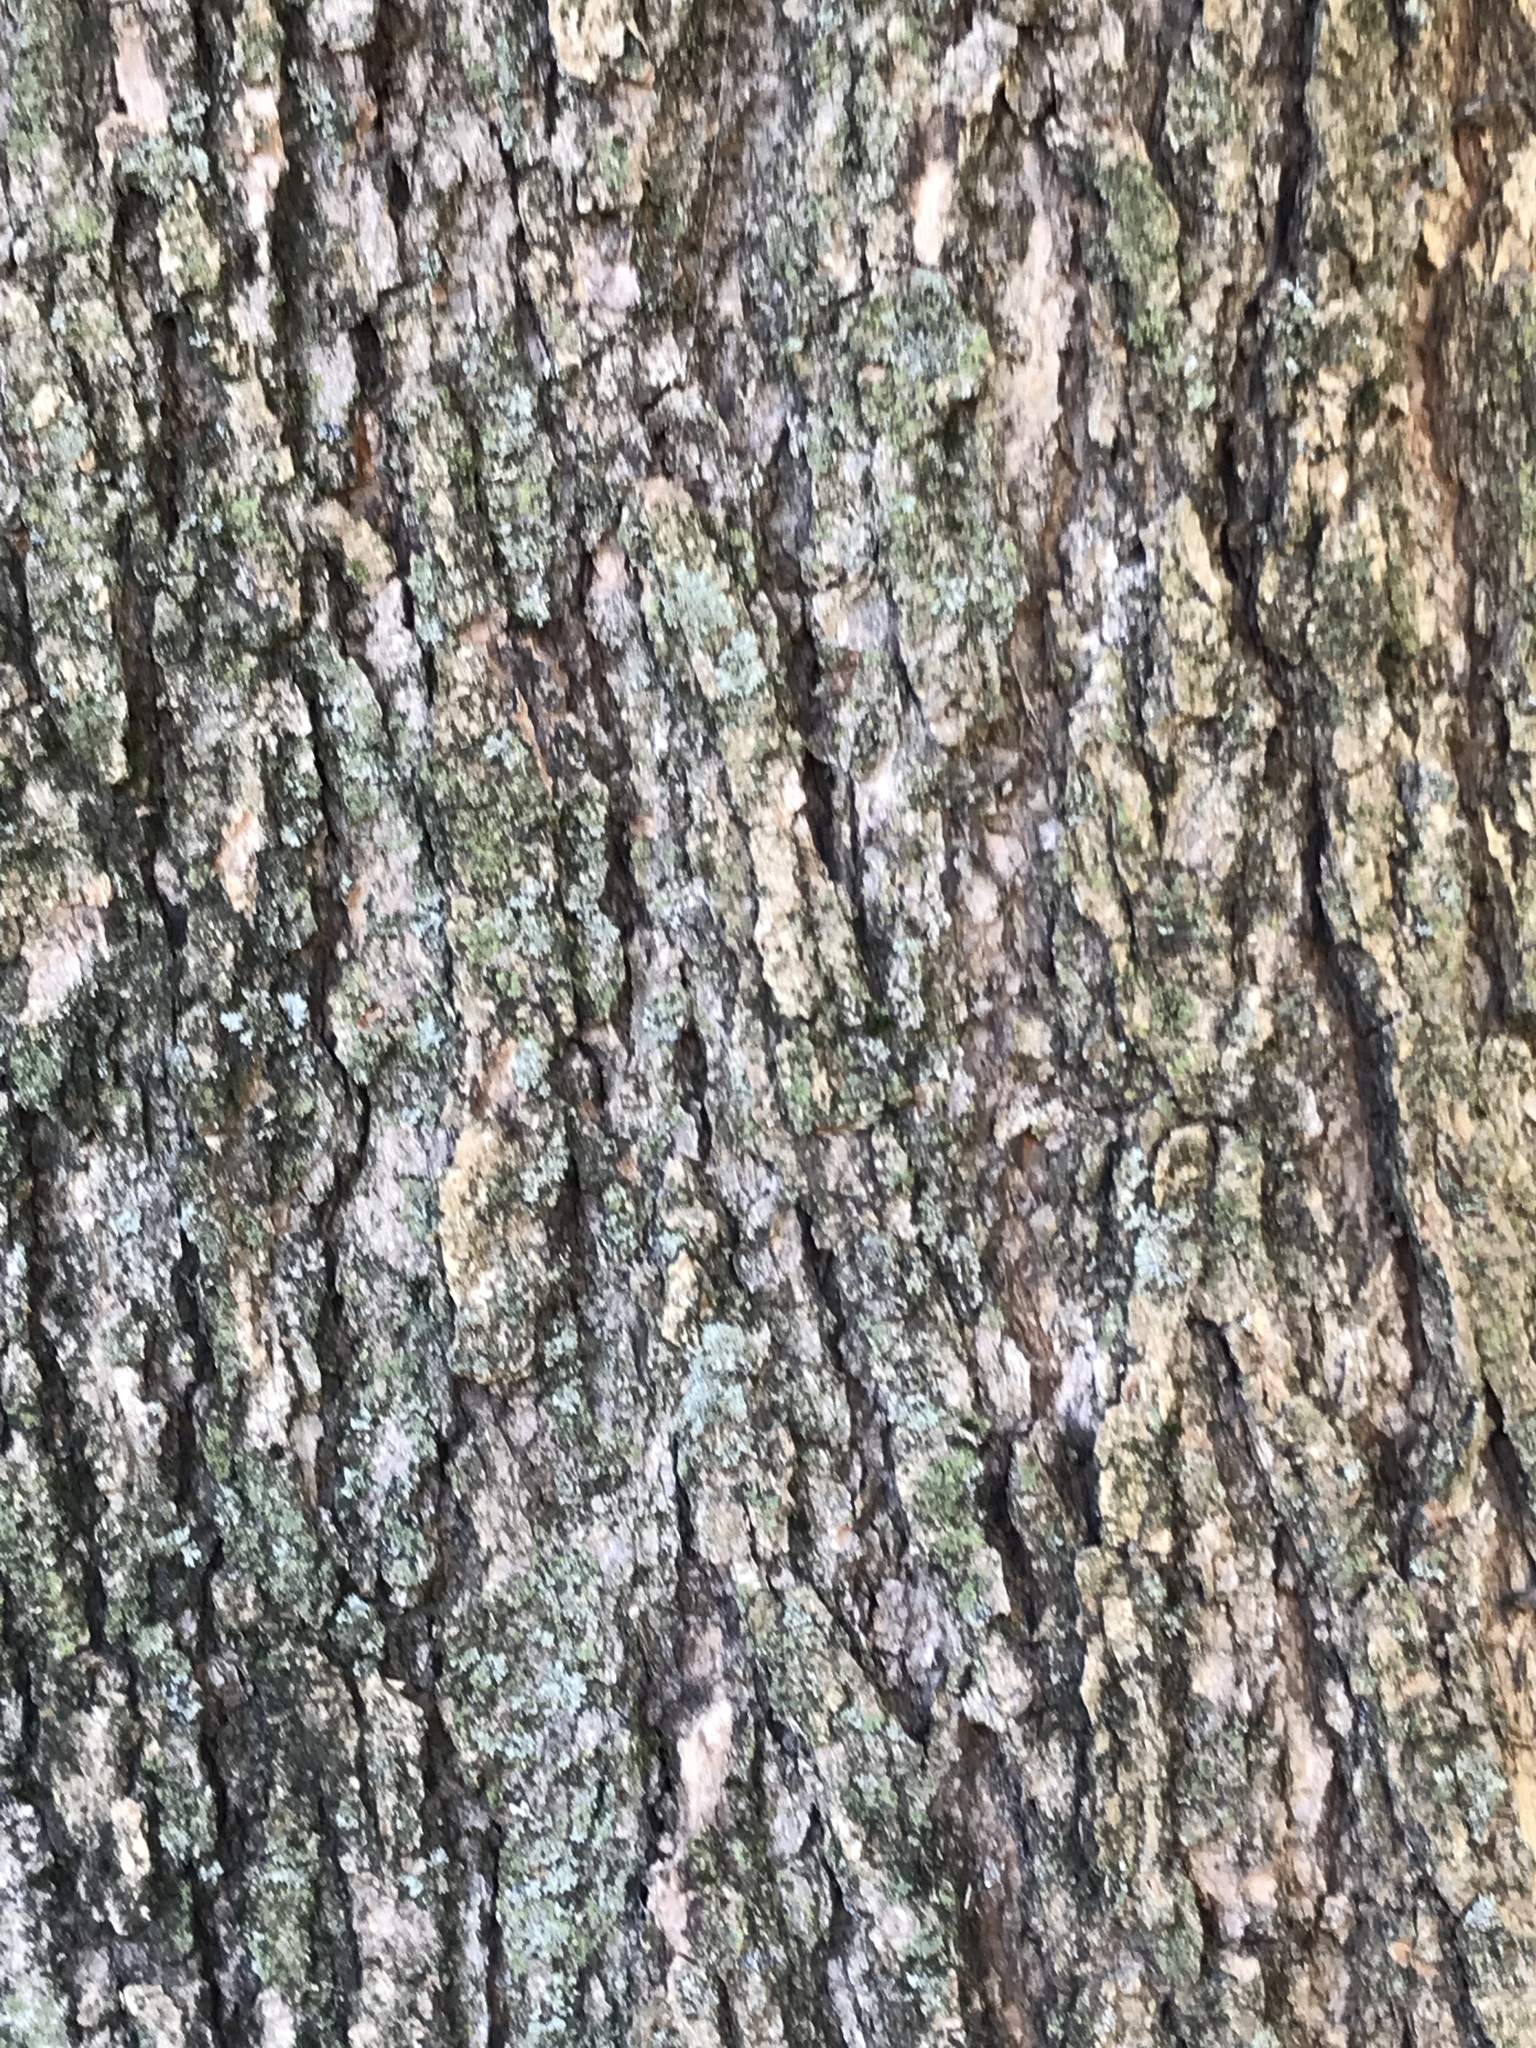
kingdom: Plantae
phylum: Tracheophyta
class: Magnoliopsida
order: Lamiales
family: Bignoniaceae
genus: Catalpa
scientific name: Catalpa speciosa
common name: Northern catalpa
